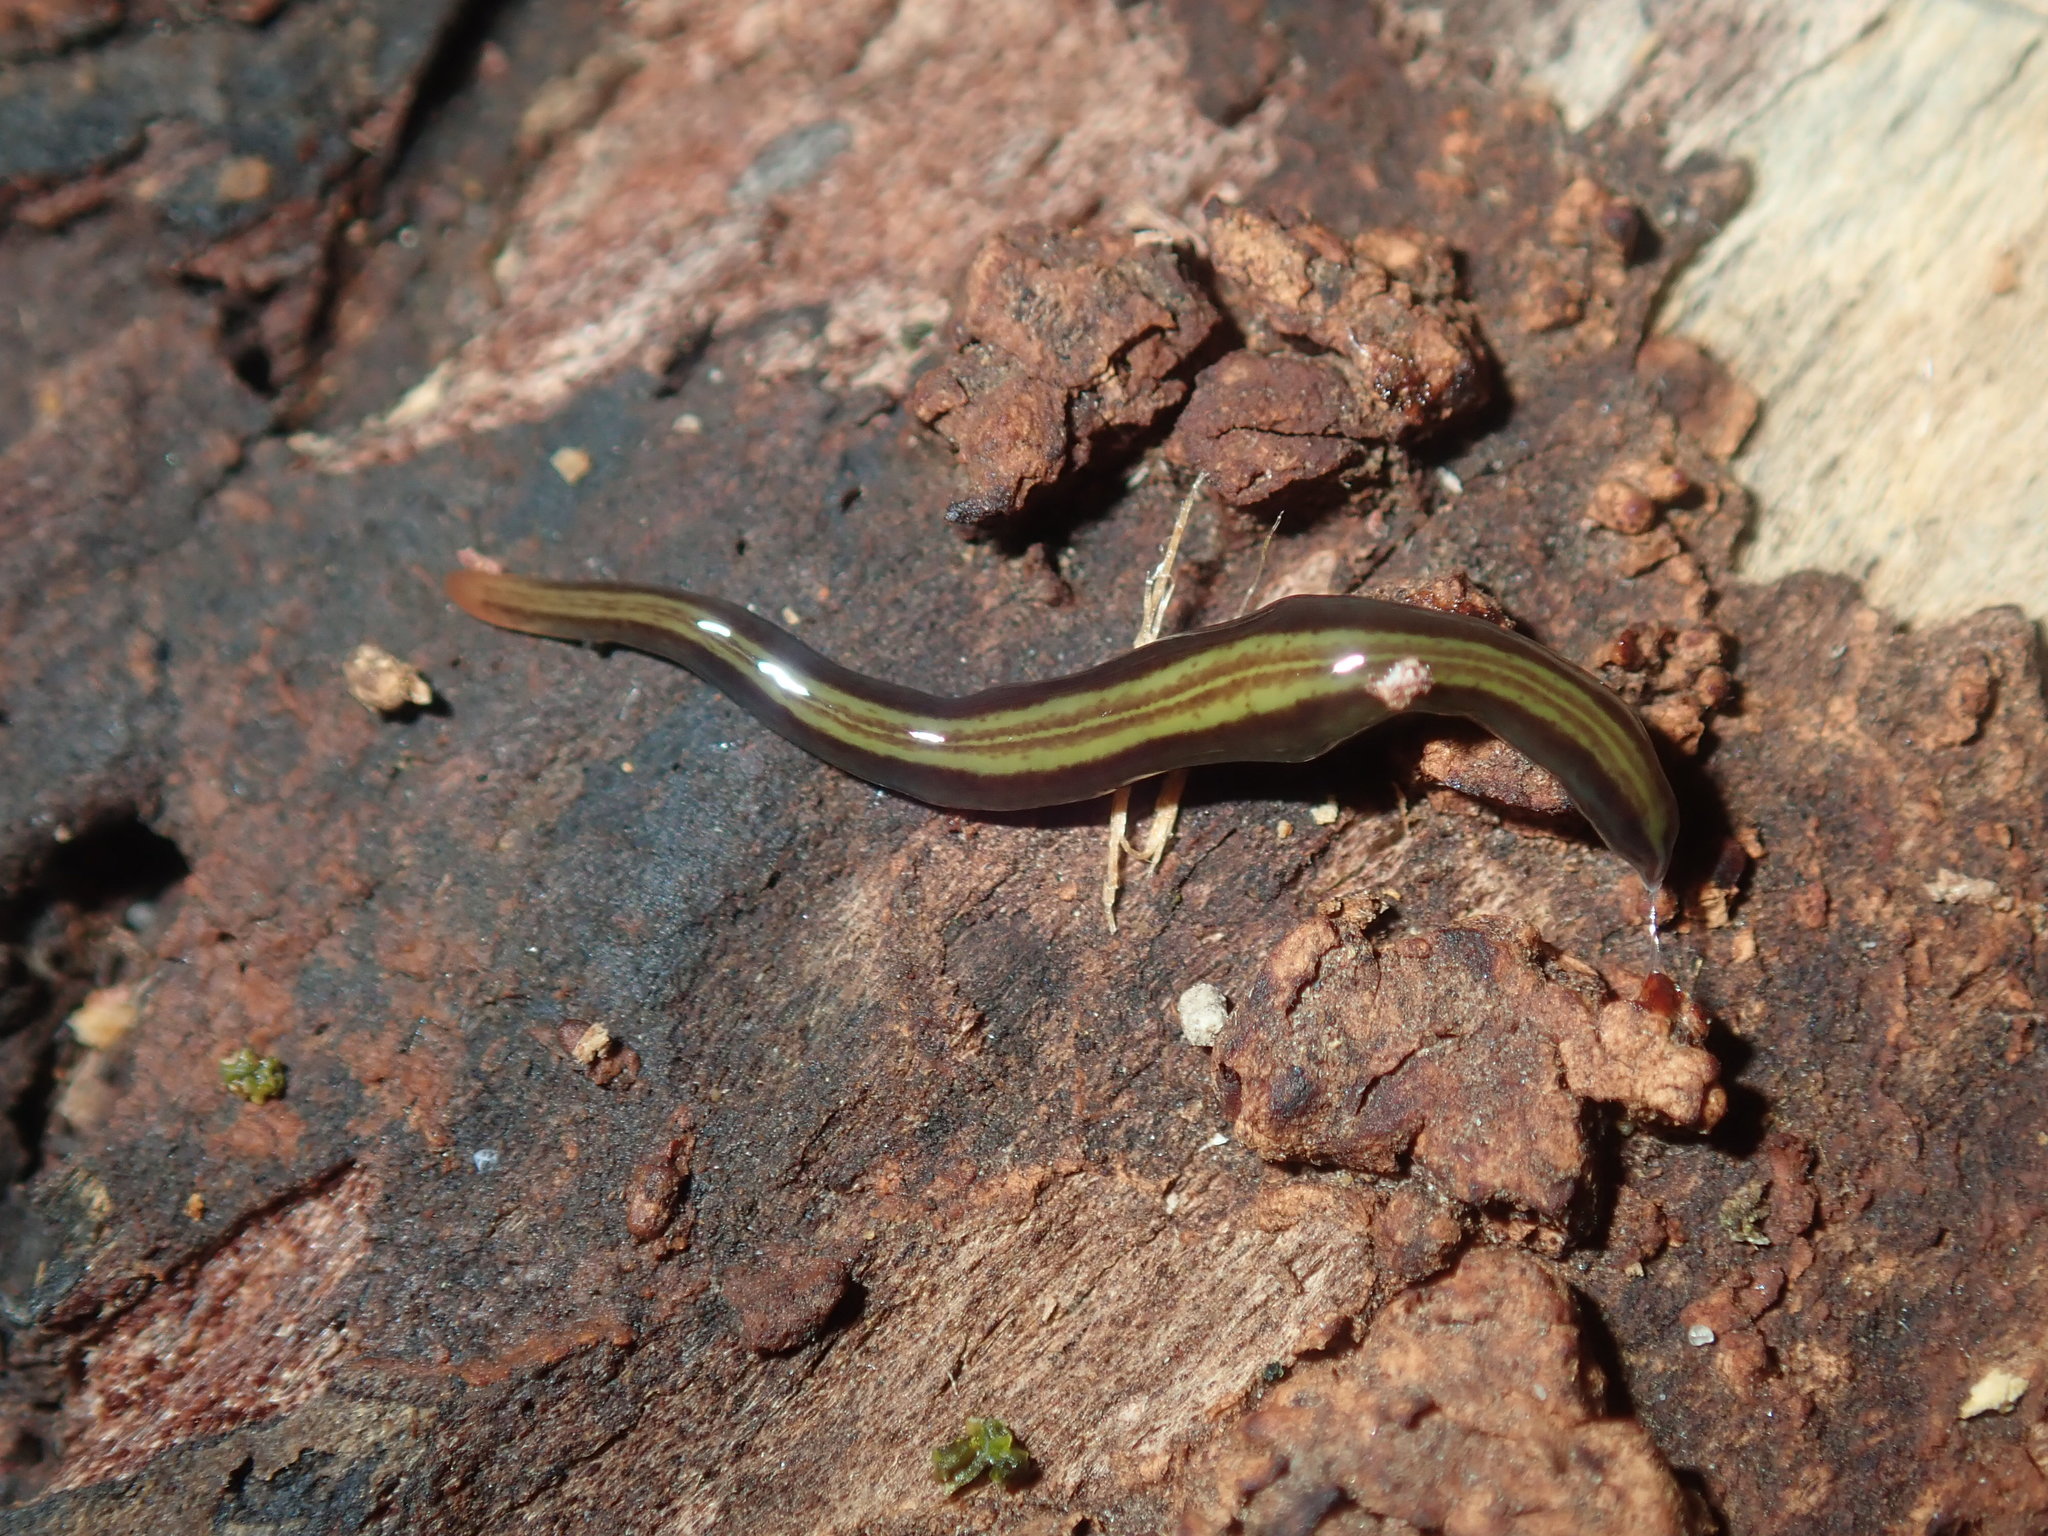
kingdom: Animalia
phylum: Platyhelminthes
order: Tricladida
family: Geoplanidae
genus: Caenoplana
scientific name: Caenoplana variegata
